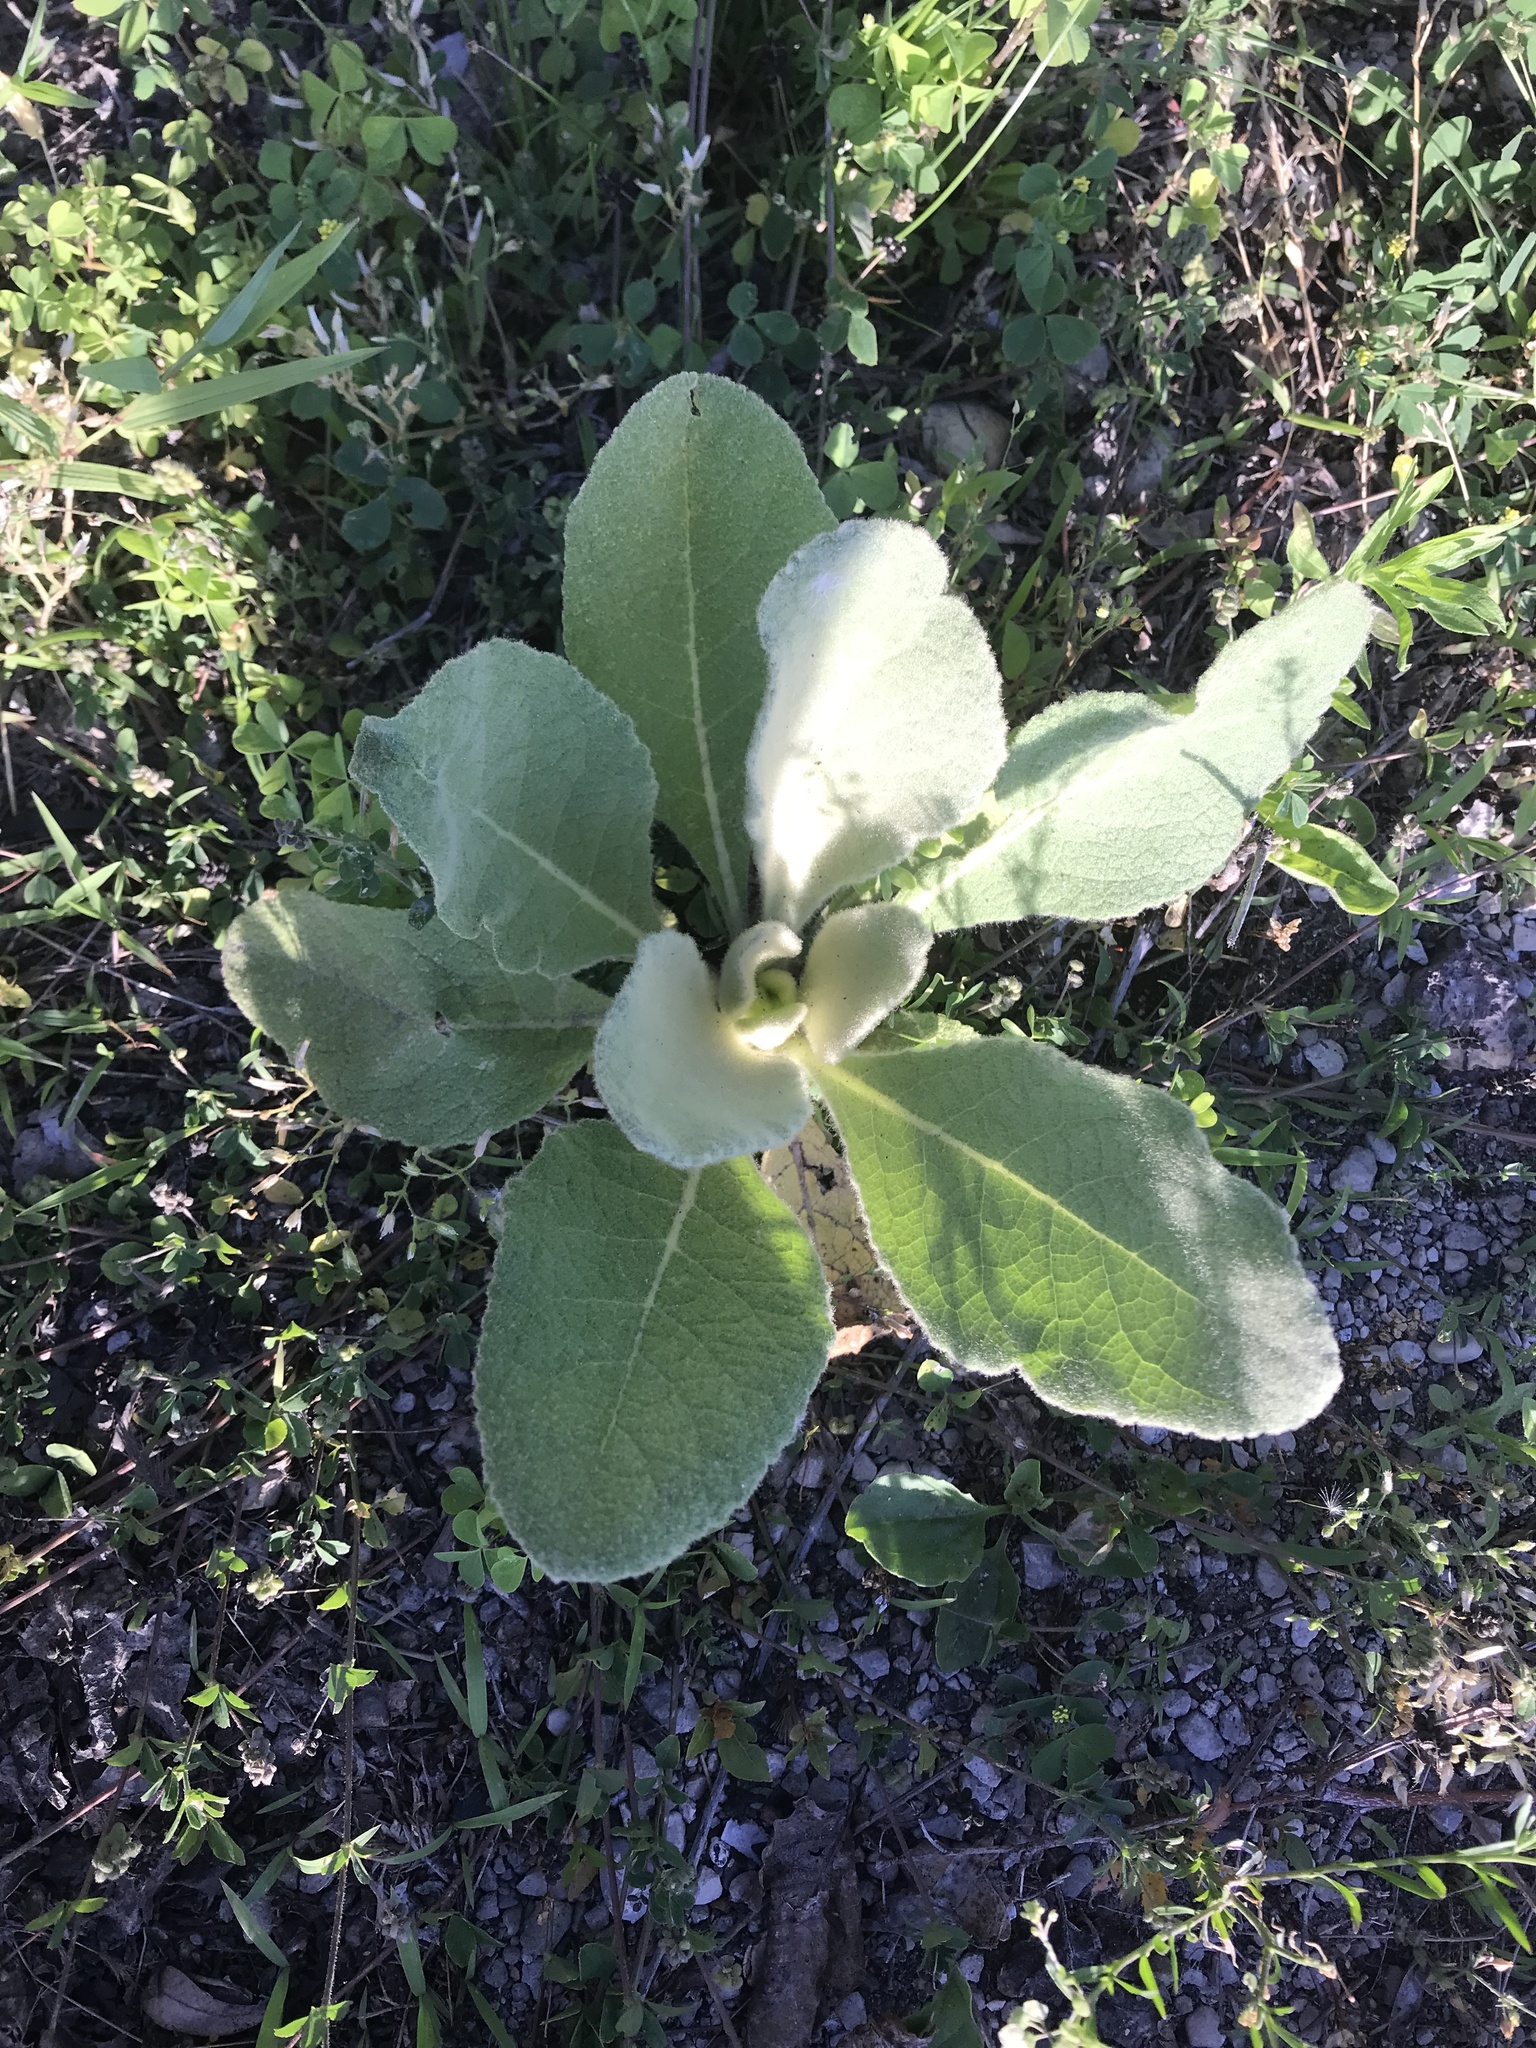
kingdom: Plantae
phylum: Tracheophyta
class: Magnoliopsida
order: Lamiales
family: Scrophulariaceae
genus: Verbascum
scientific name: Verbascum thapsus
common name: Common mullein
